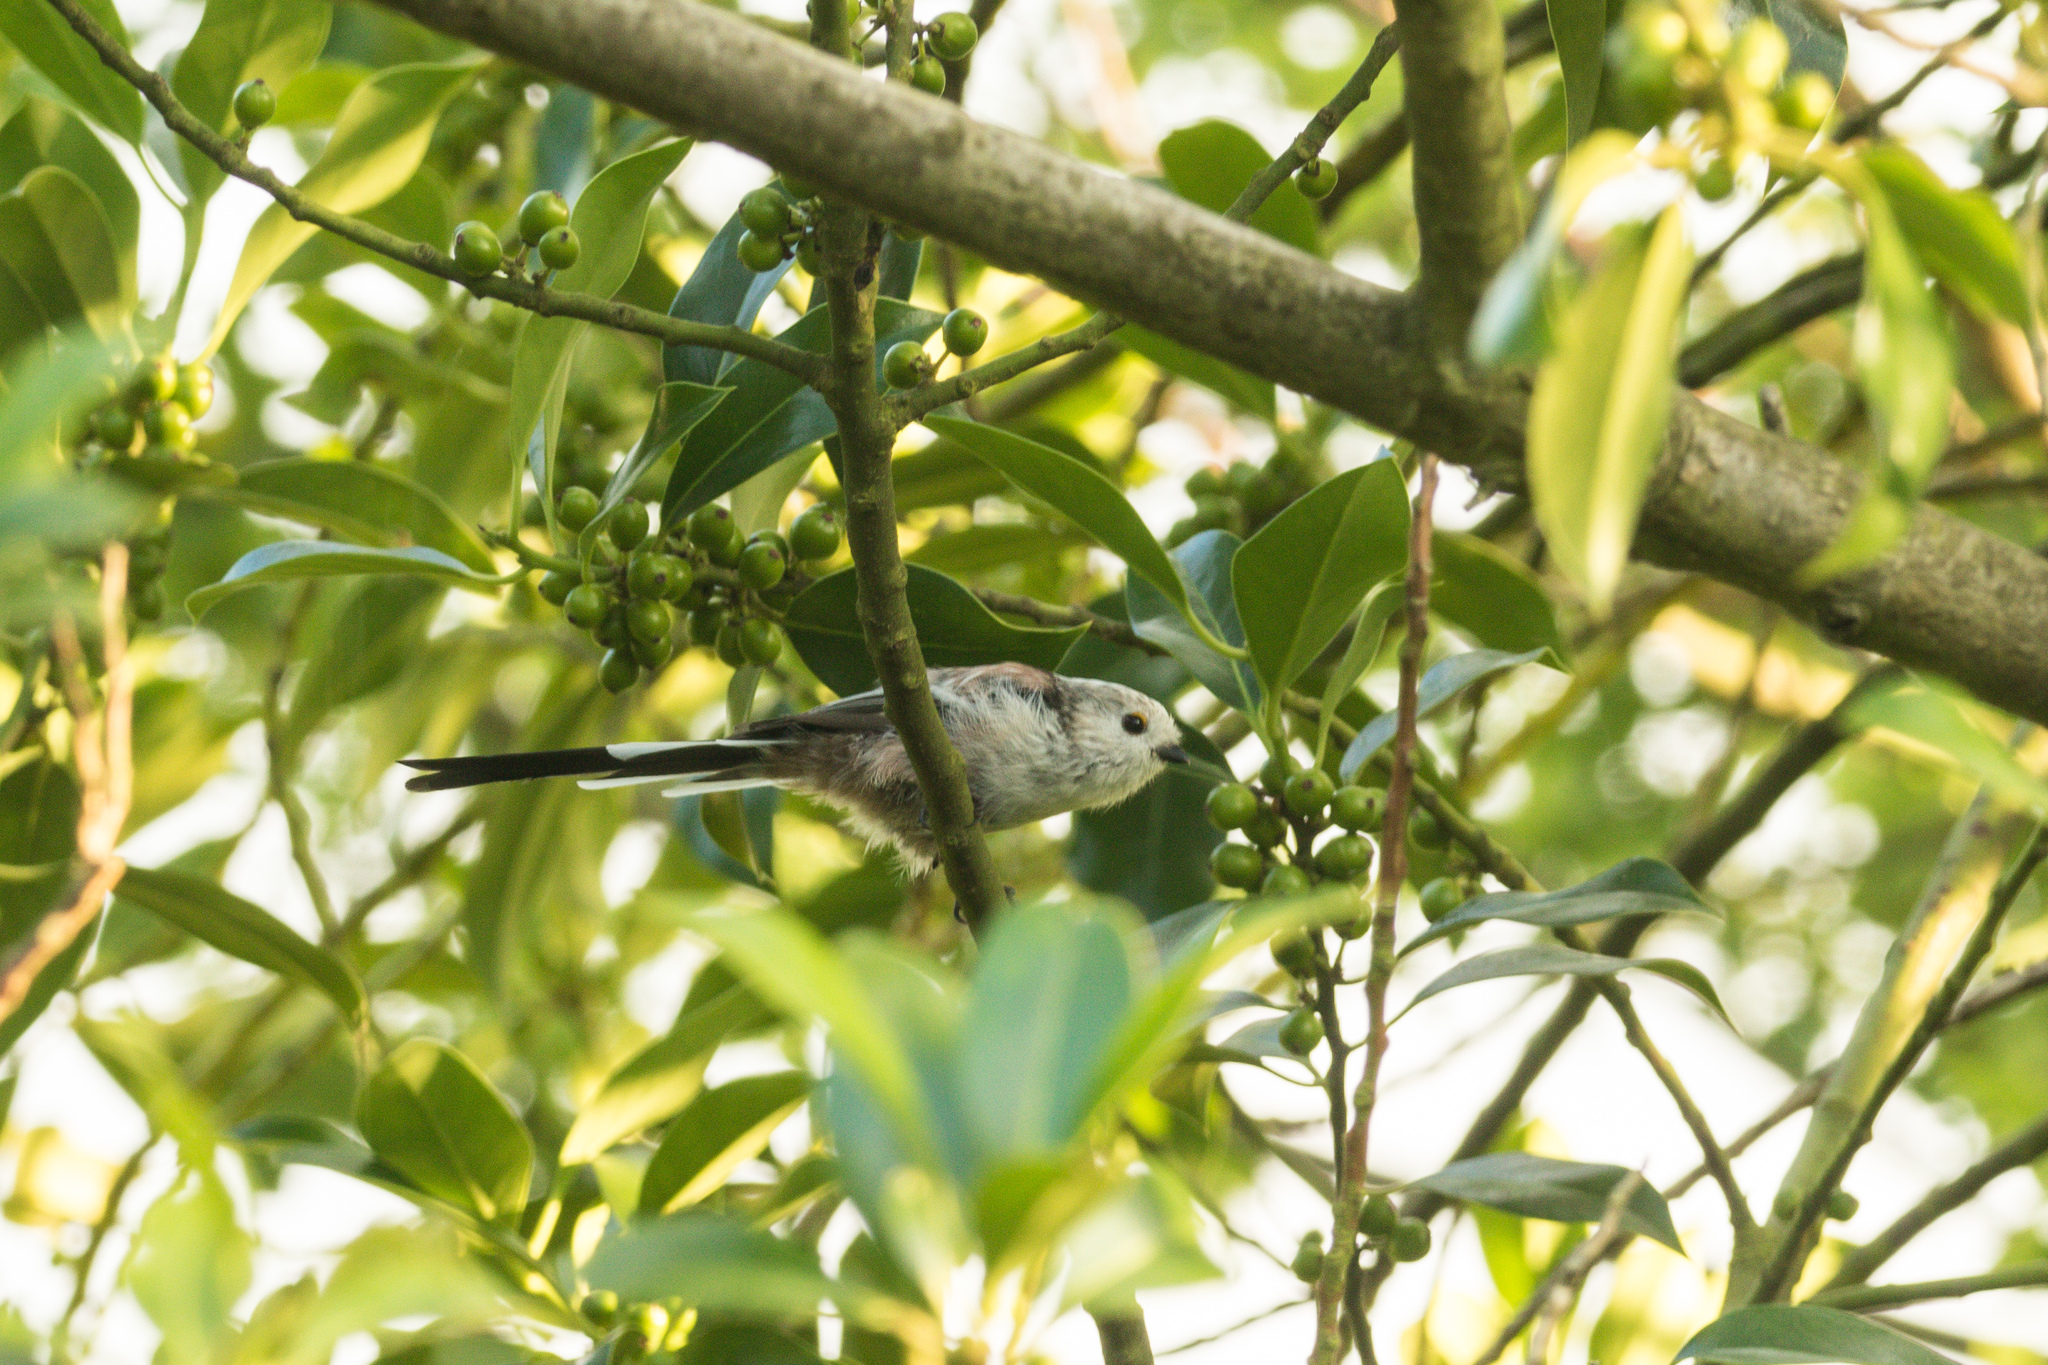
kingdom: Animalia
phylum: Chordata
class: Aves
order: Passeriformes
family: Aegithalidae
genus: Aegithalos
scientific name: Aegithalos caudatus
